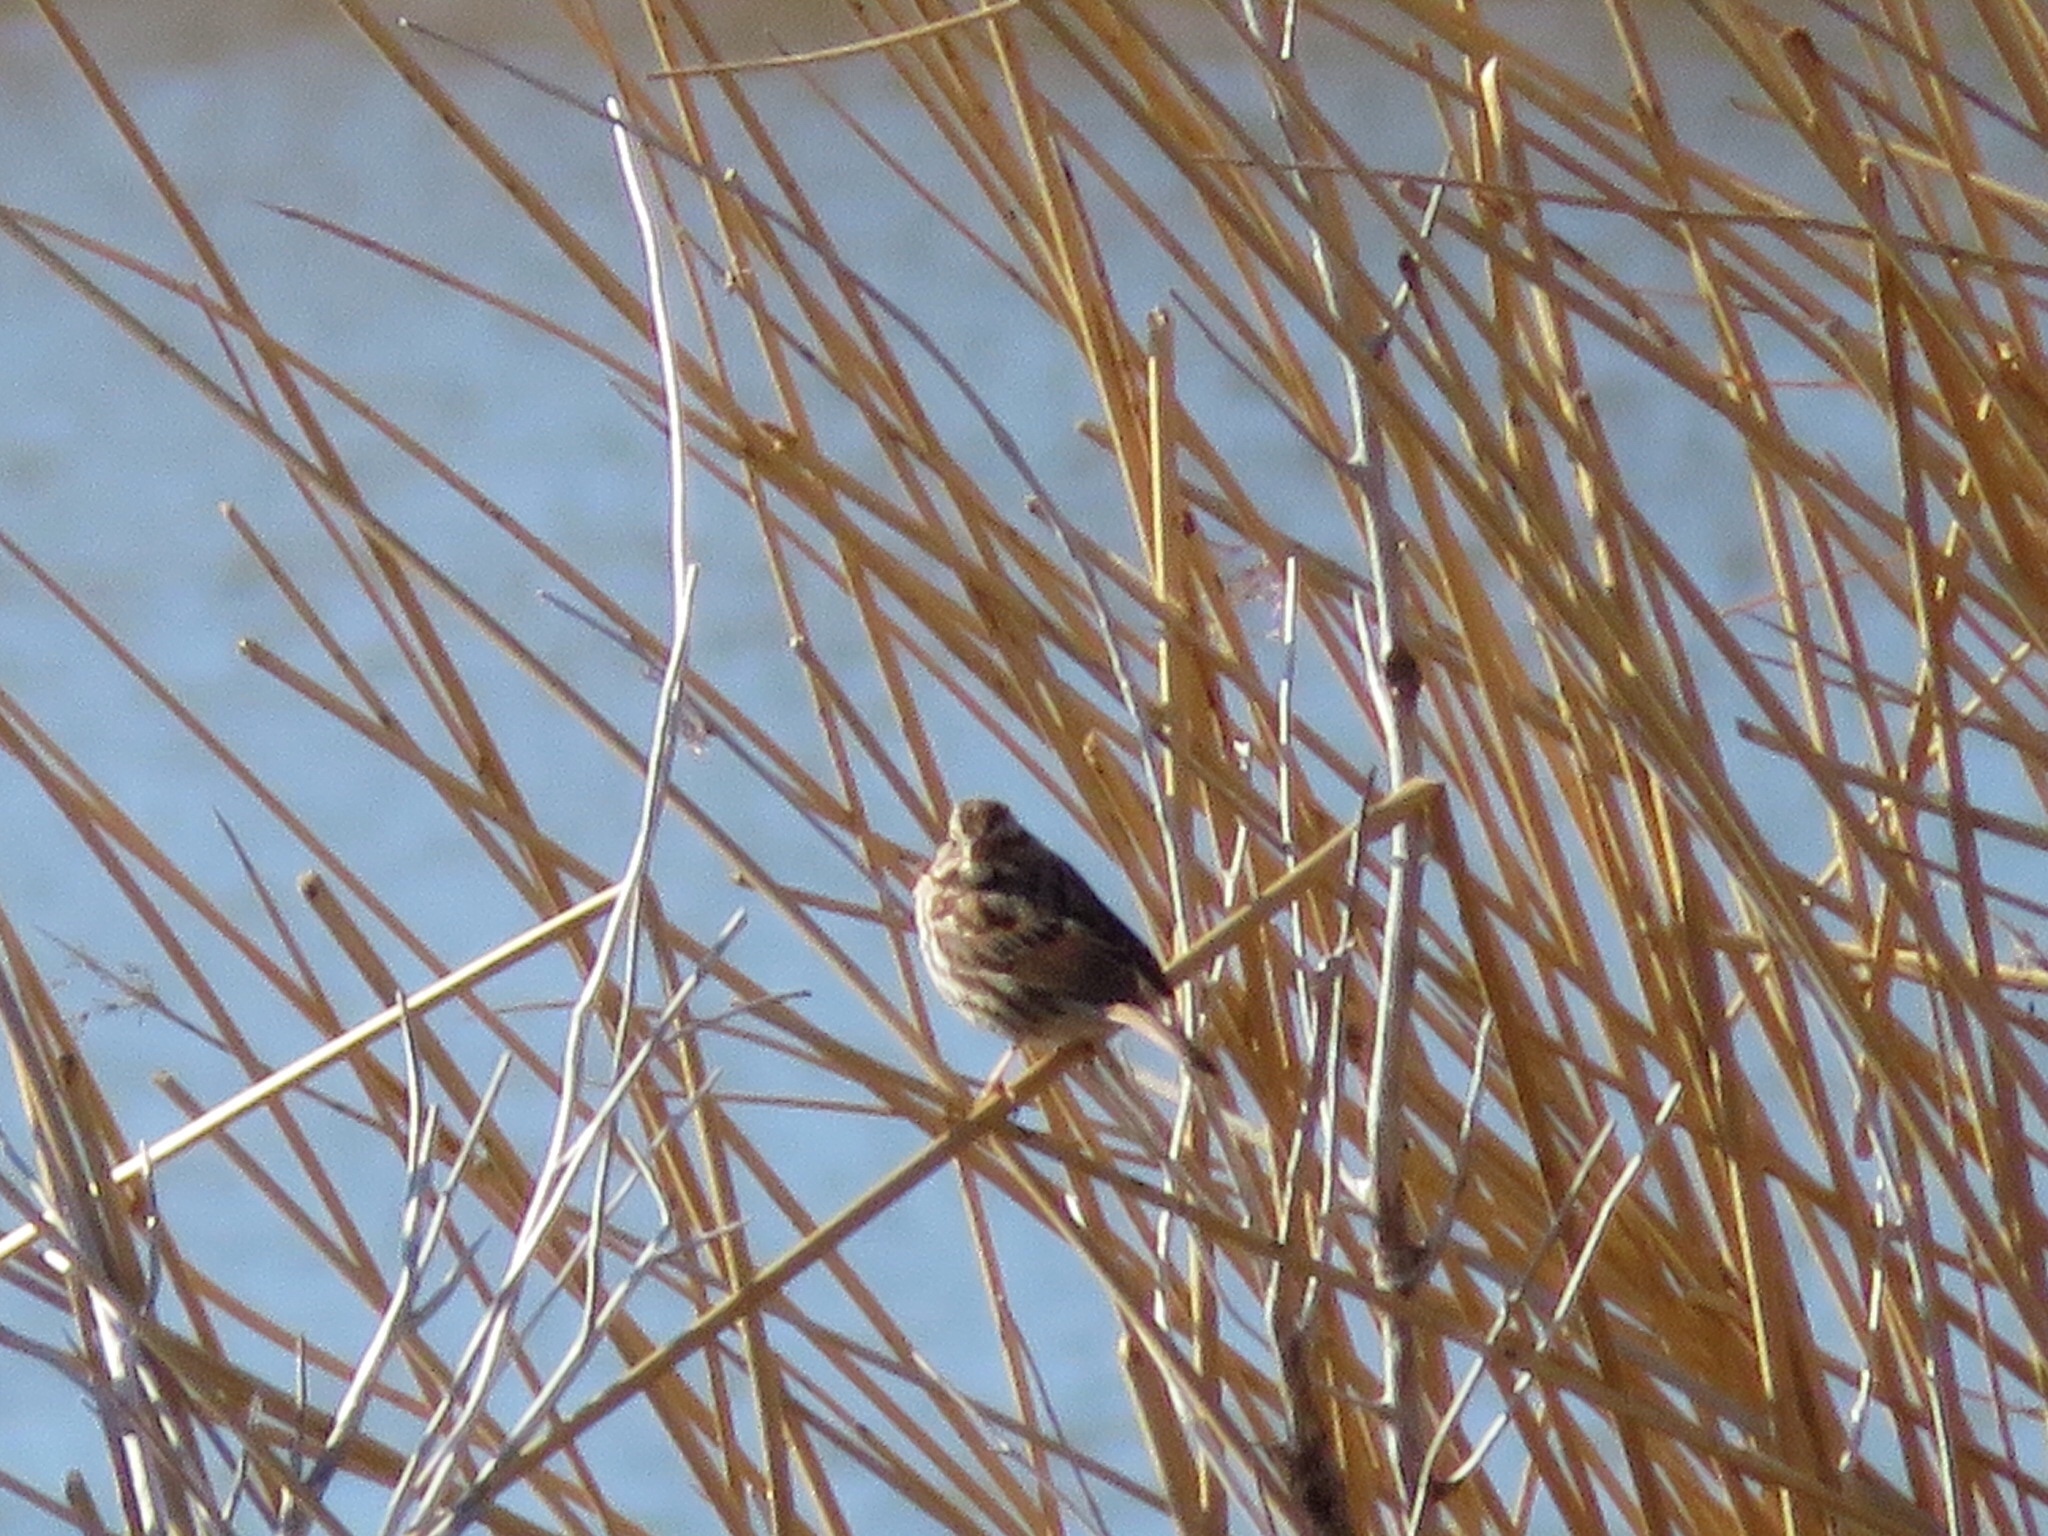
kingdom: Animalia
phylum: Chordata
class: Aves
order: Passeriformes
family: Passerellidae
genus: Melospiza
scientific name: Melospiza melodia
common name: Song sparrow
